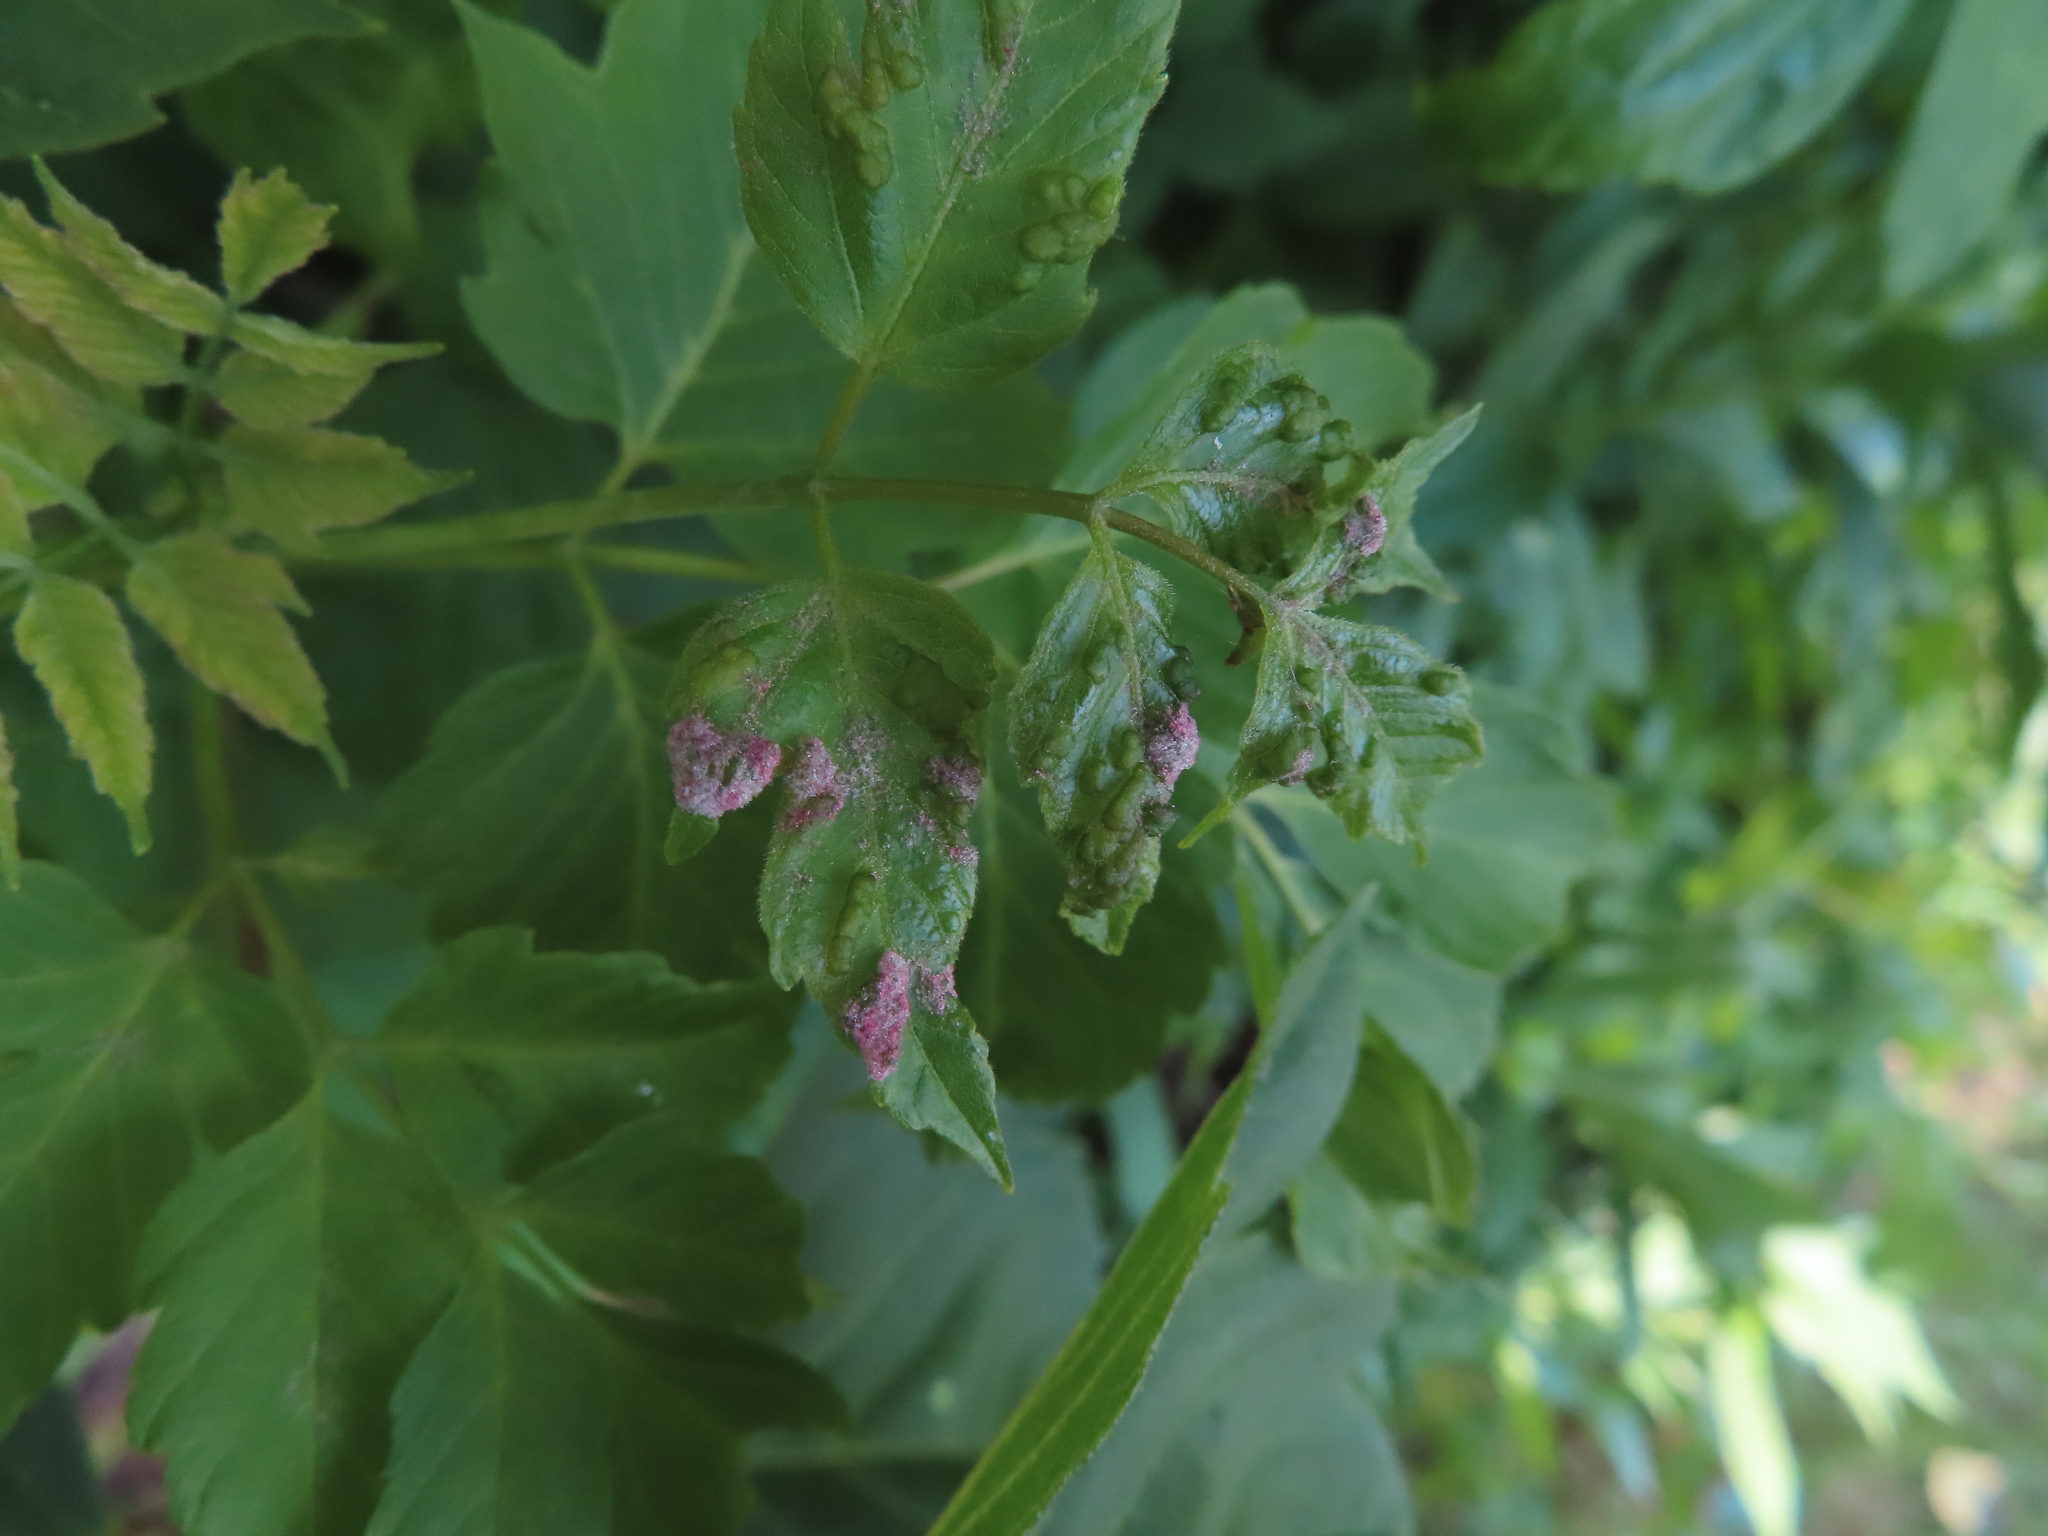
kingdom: Animalia
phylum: Arthropoda
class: Arachnida
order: Trombidiformes
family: Eriophyidae
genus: Aceria
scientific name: Aceria
